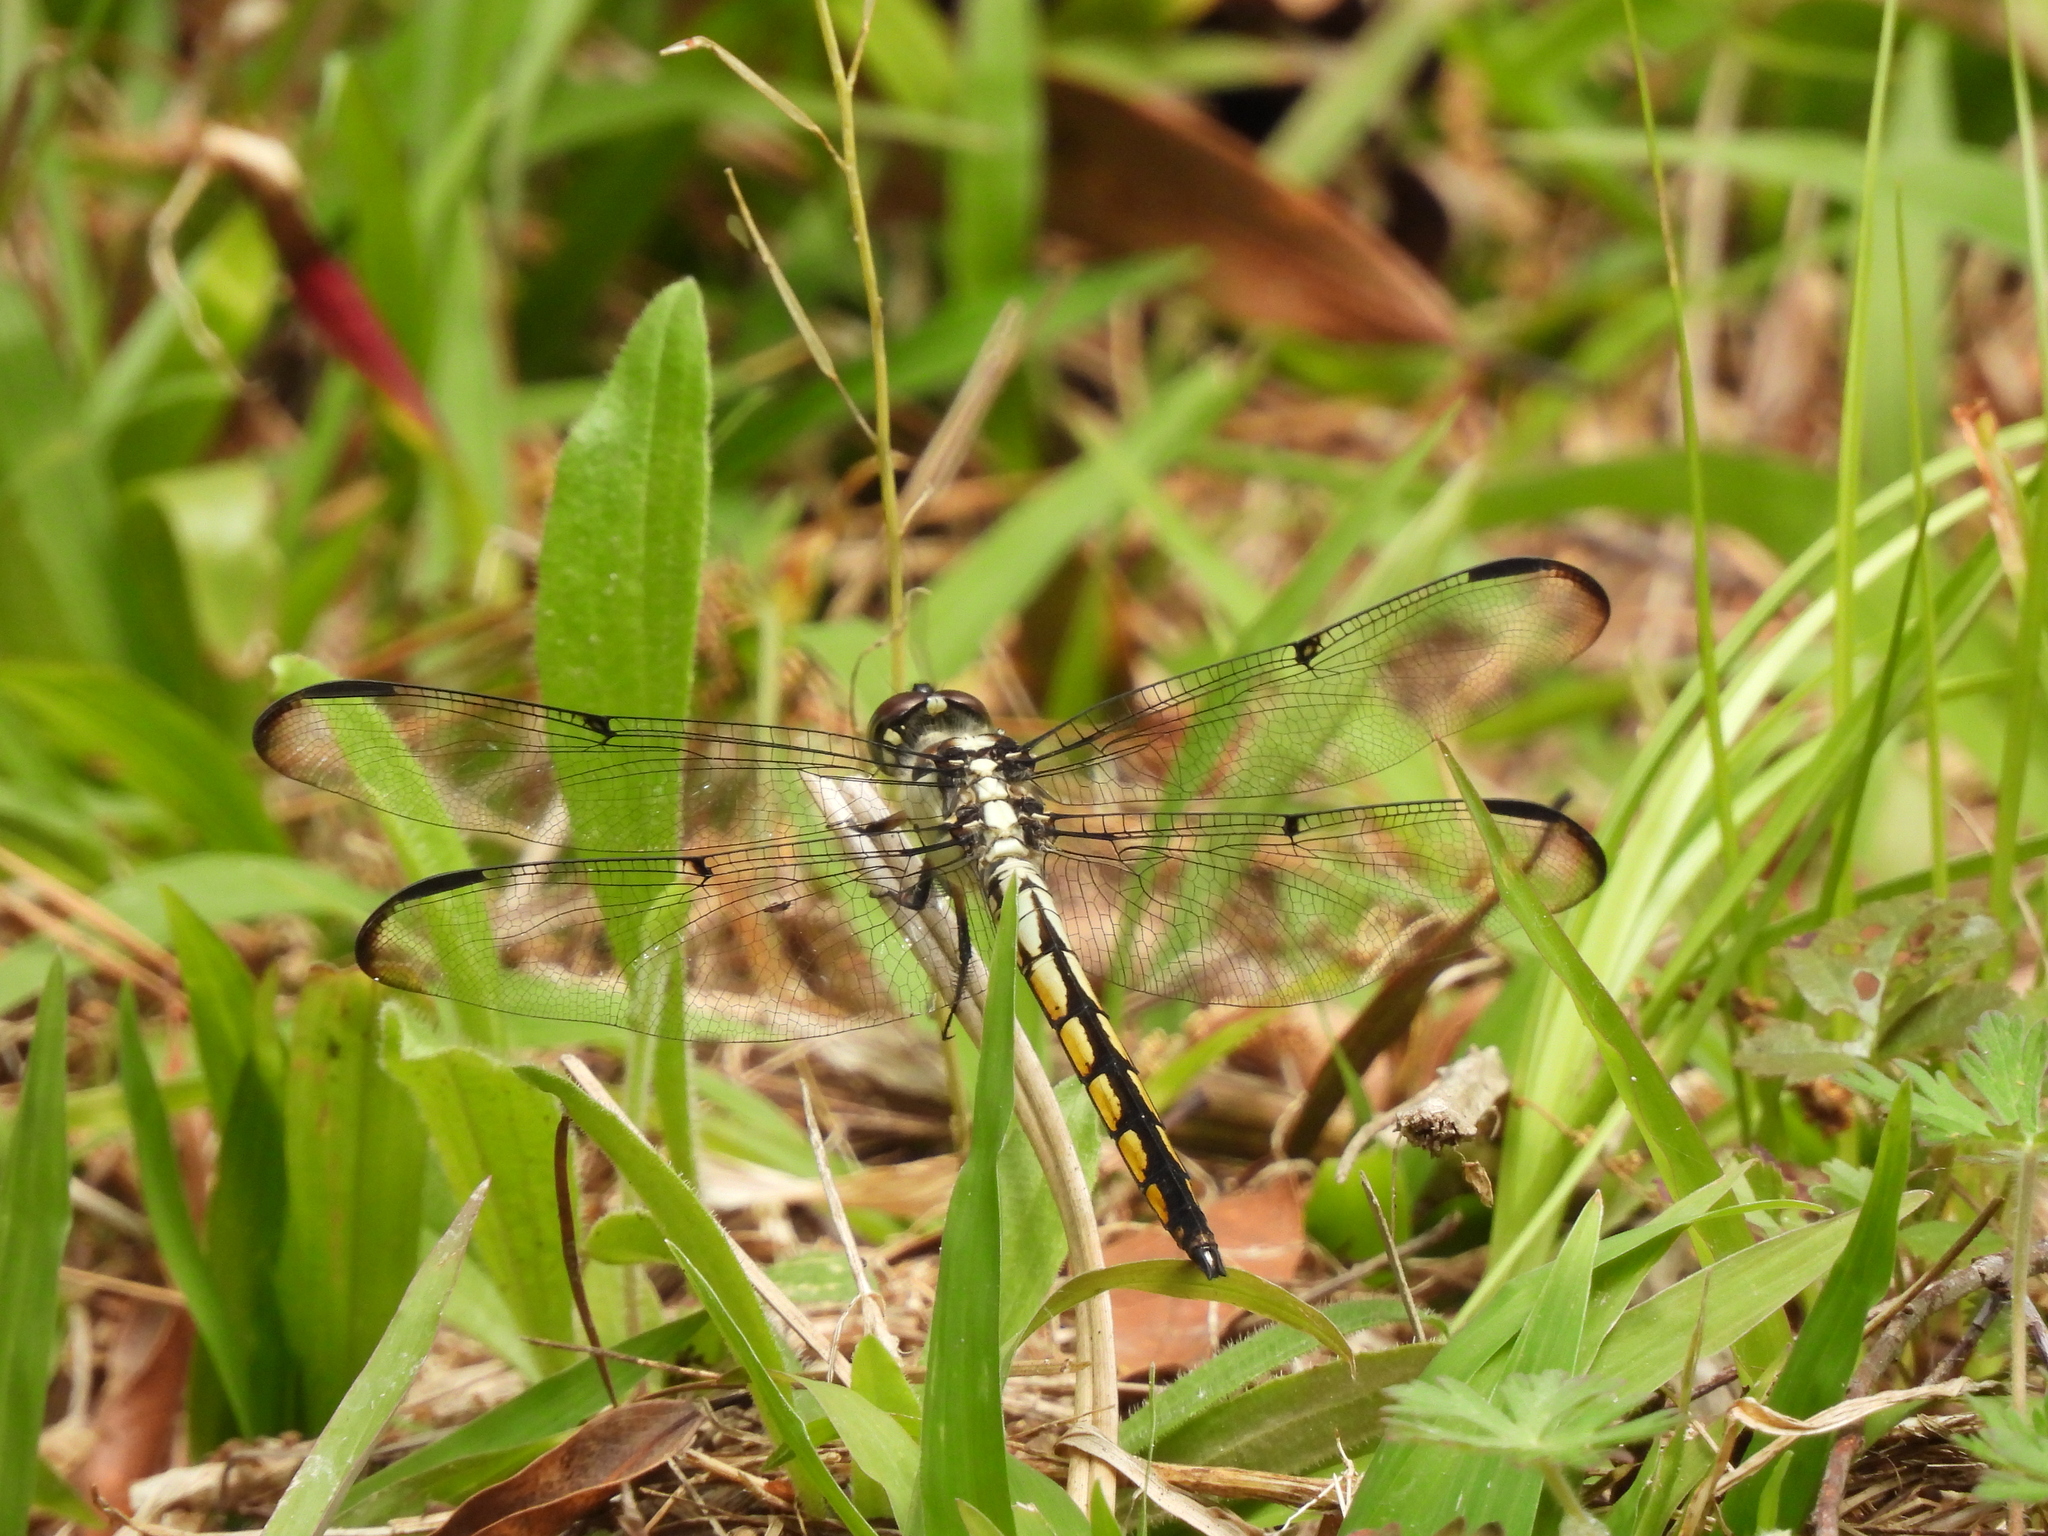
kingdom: Animalia
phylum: Arthropoda
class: Insecta
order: Odonata
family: Libellulidae
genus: Libellula
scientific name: Libellula vibrans
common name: Great blue skimmer
